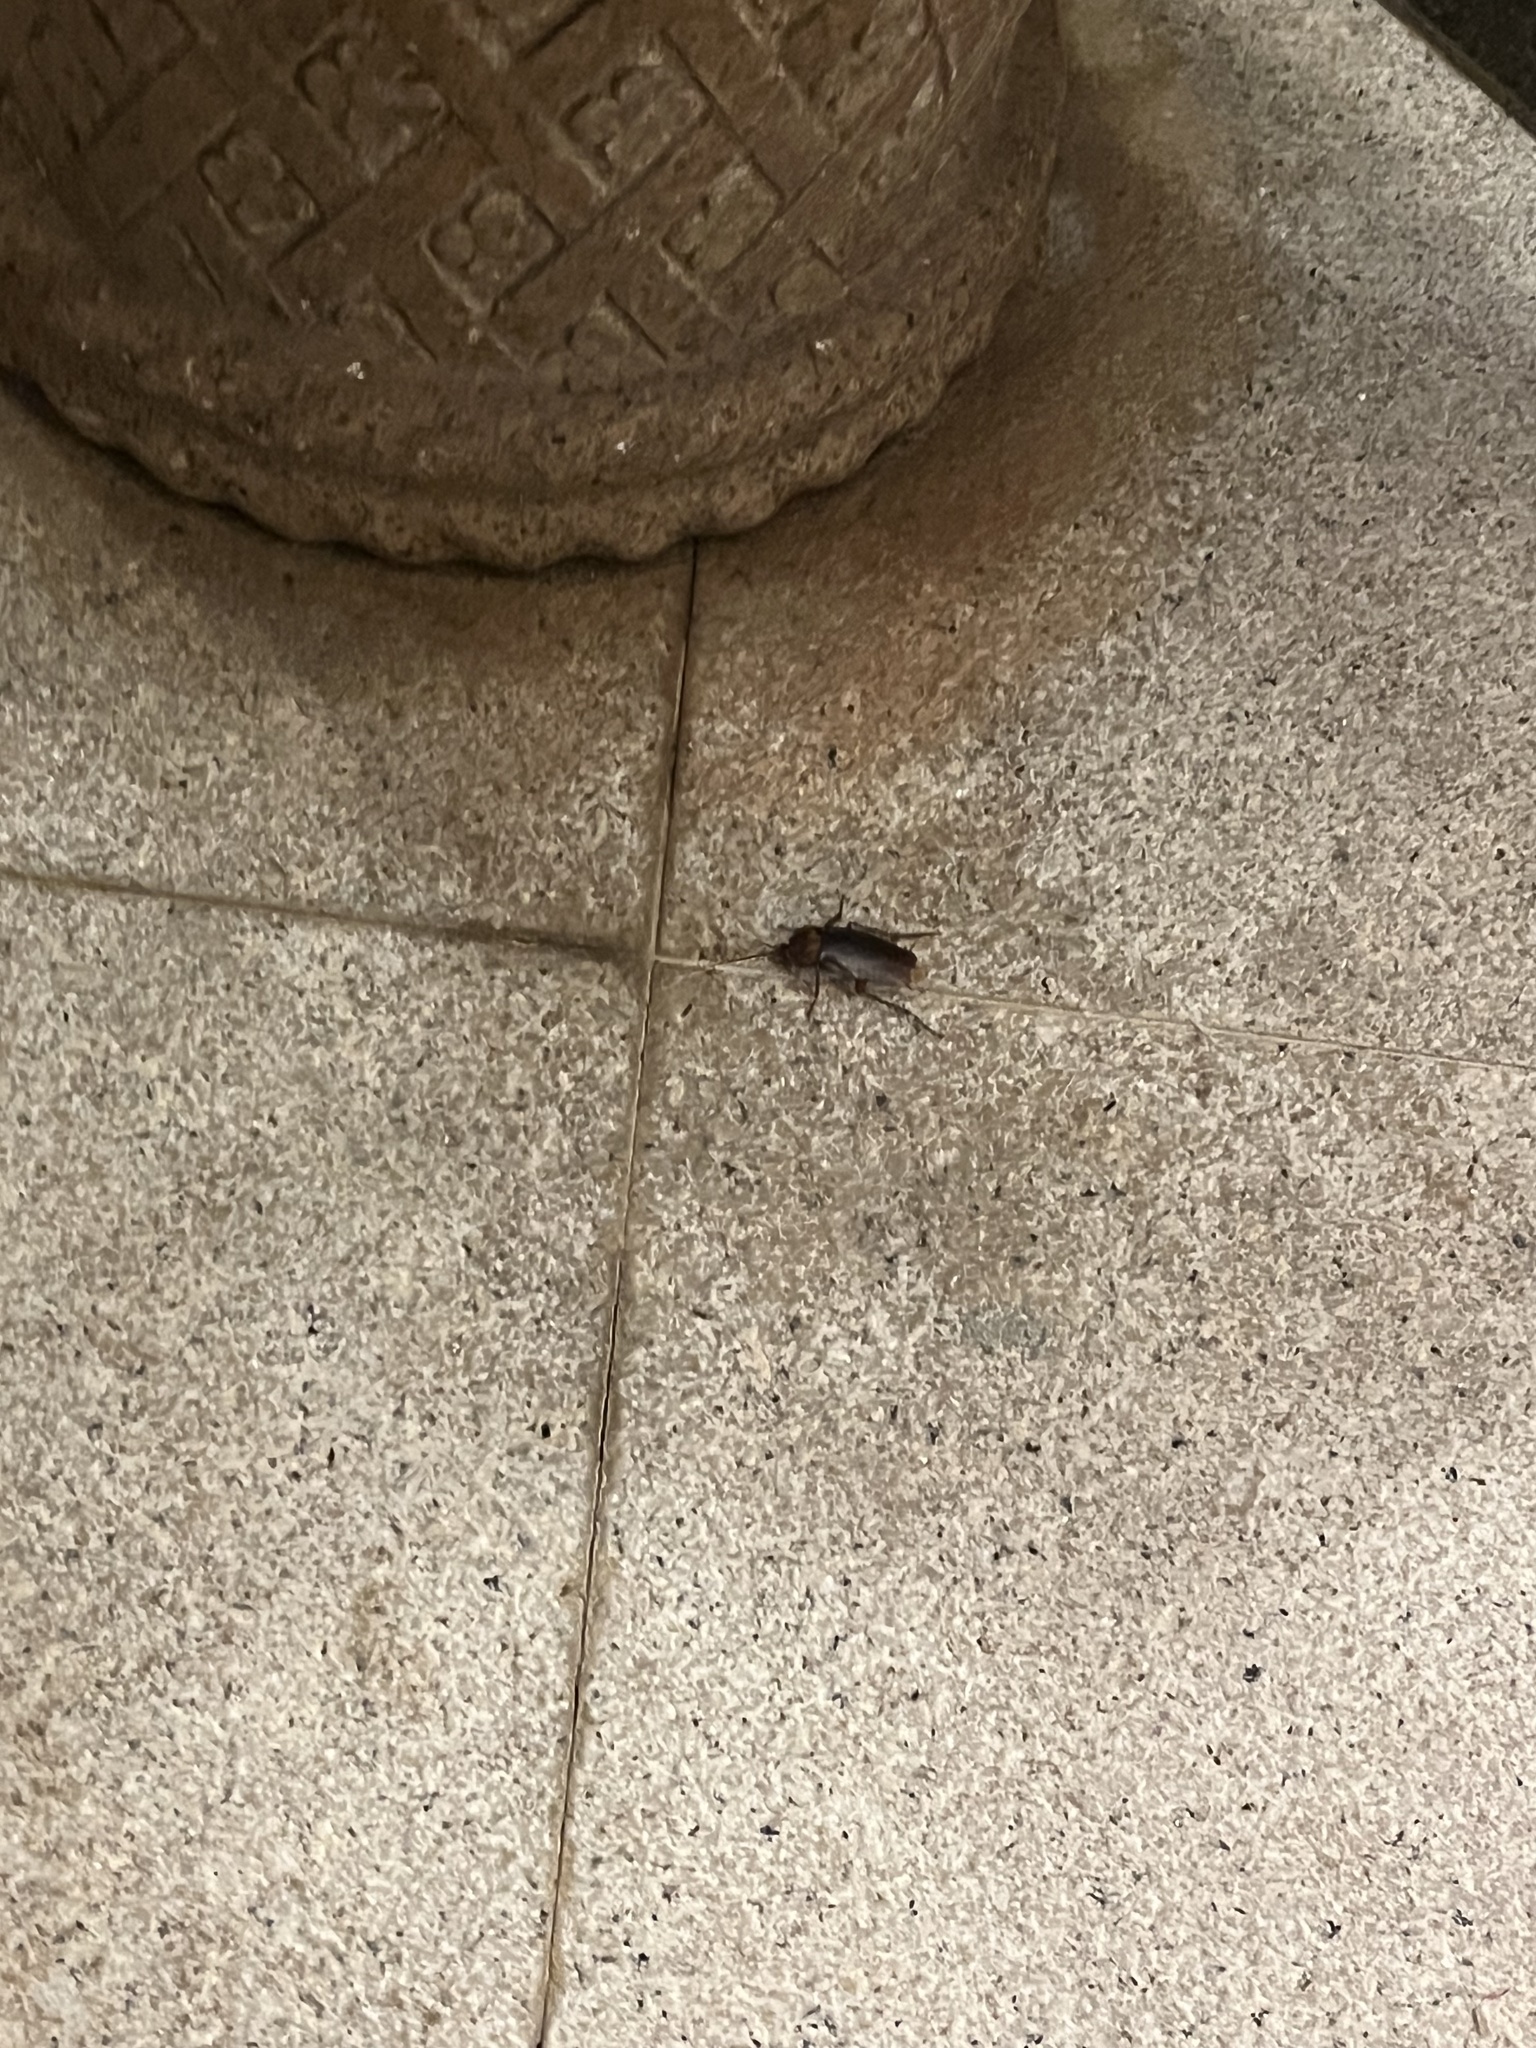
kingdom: Animalia
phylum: Arthropoda
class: Insecta
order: Blattodea
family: Blattidae
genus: Periplaneta
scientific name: Periplaneta americana
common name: American cockroach
